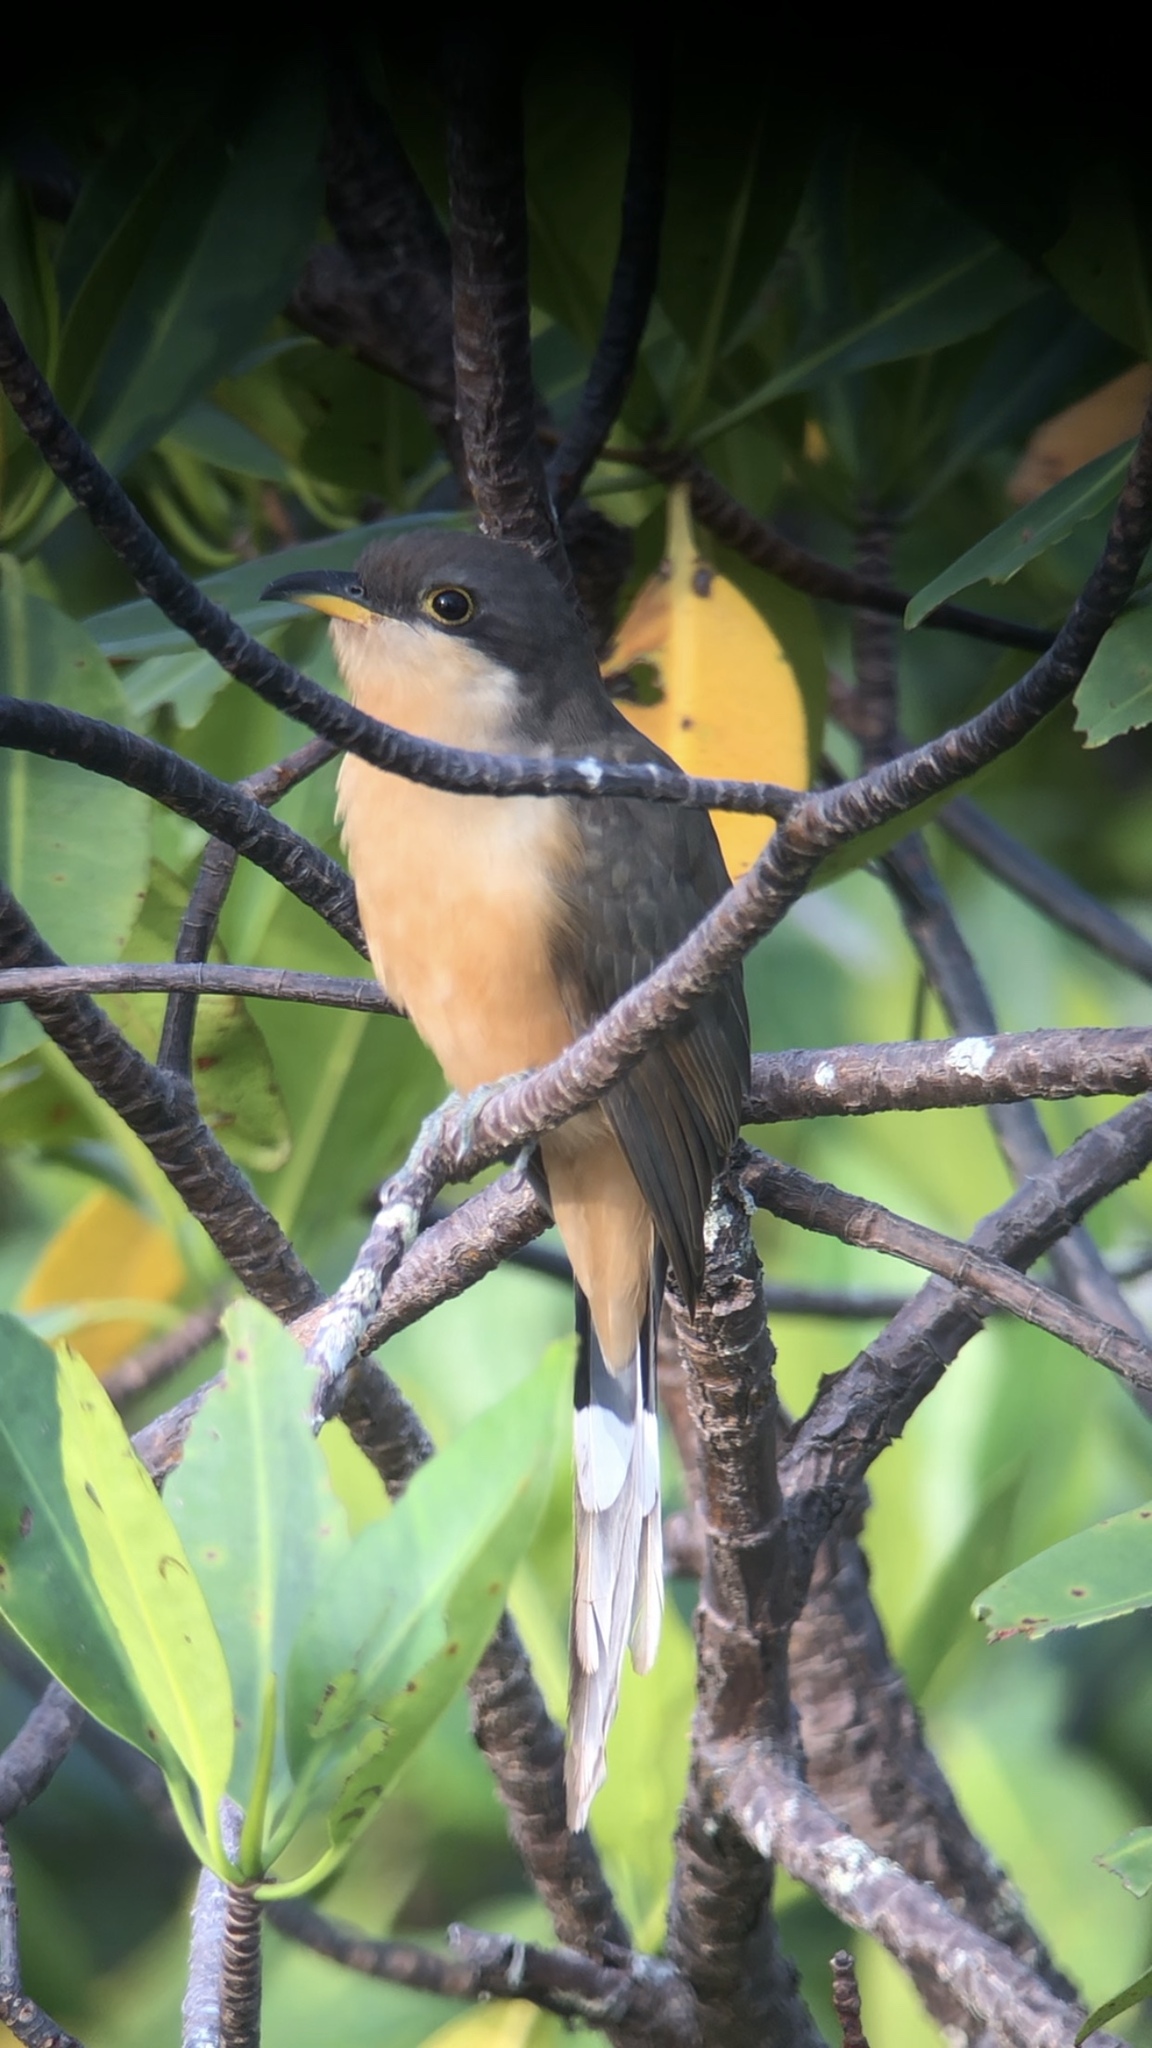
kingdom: Animalia
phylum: Chordata
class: Aves
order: Cuculiformes
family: Cuculidae
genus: Coccyzus
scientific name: Coccyzus minor
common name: Mangrove cuckoo
